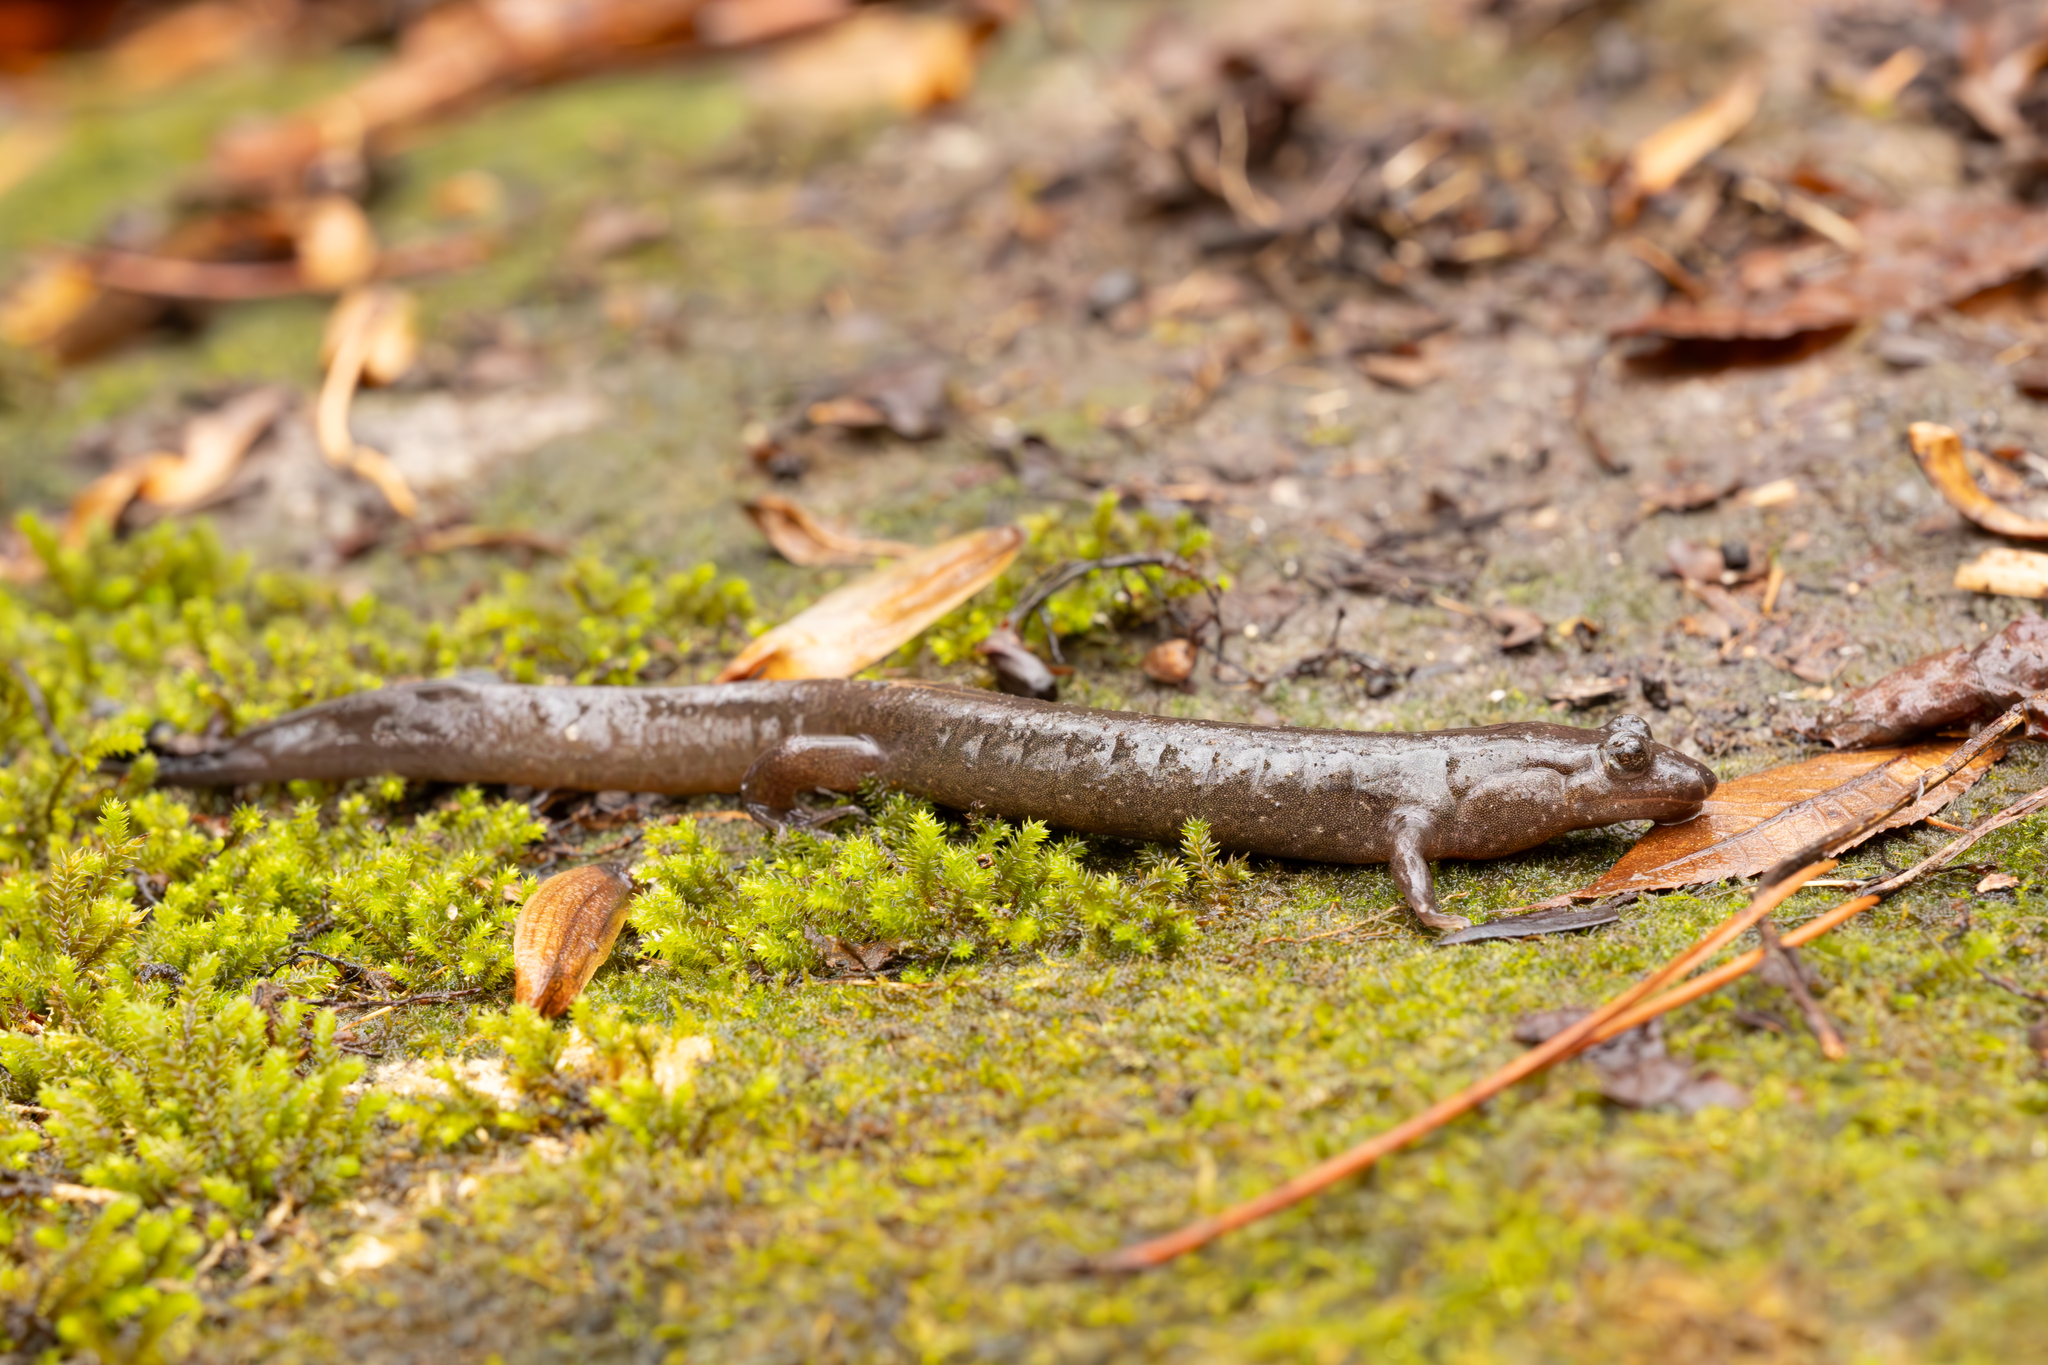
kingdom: Animalia
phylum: Chordata
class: Amphibia
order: Caudata
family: Plethodontidae
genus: Desmognathus
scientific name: Desmognathus
